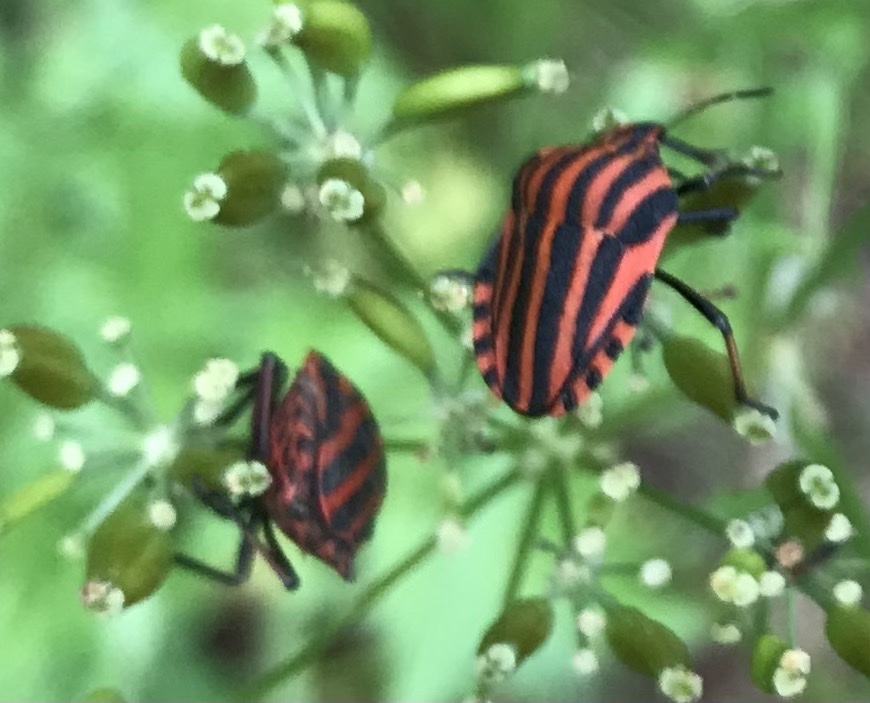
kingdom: Animalia
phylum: Arthropoda
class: Insecta
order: Hemiptera
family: Pentatomidae
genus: Graphosoma
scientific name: Graphosoma italicum
